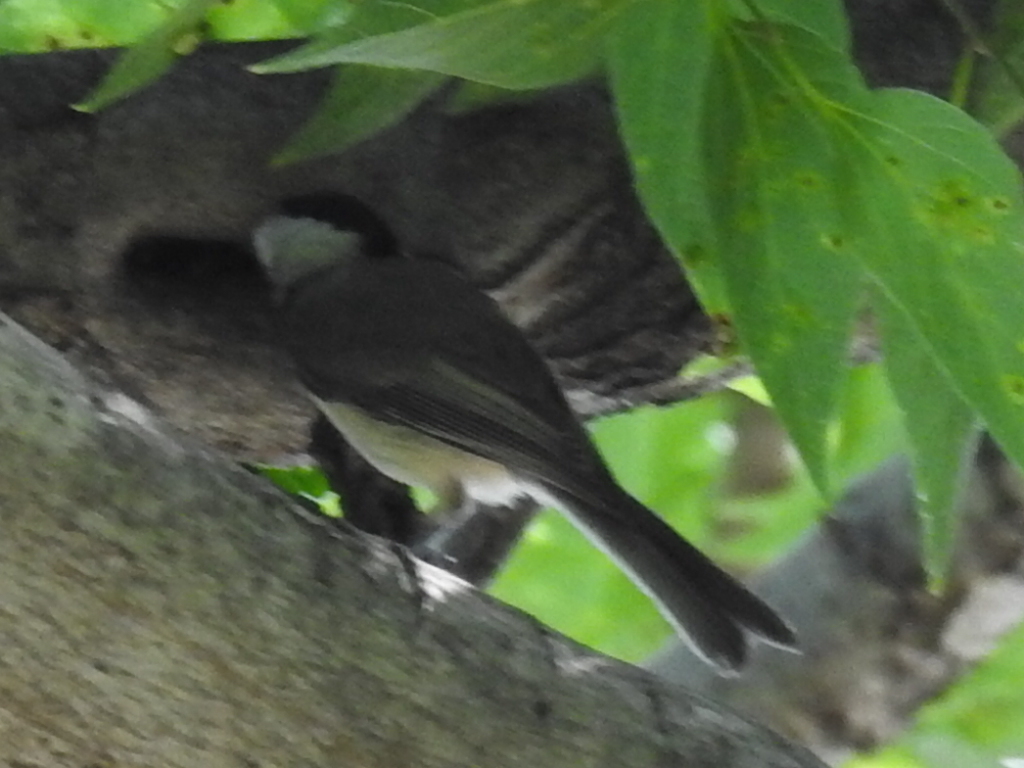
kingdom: Animalia
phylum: Chordata
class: Aves
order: Passeriformes
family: Paridae
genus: Poecile
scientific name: Poecile carolinensis
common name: Carolina chickadee
